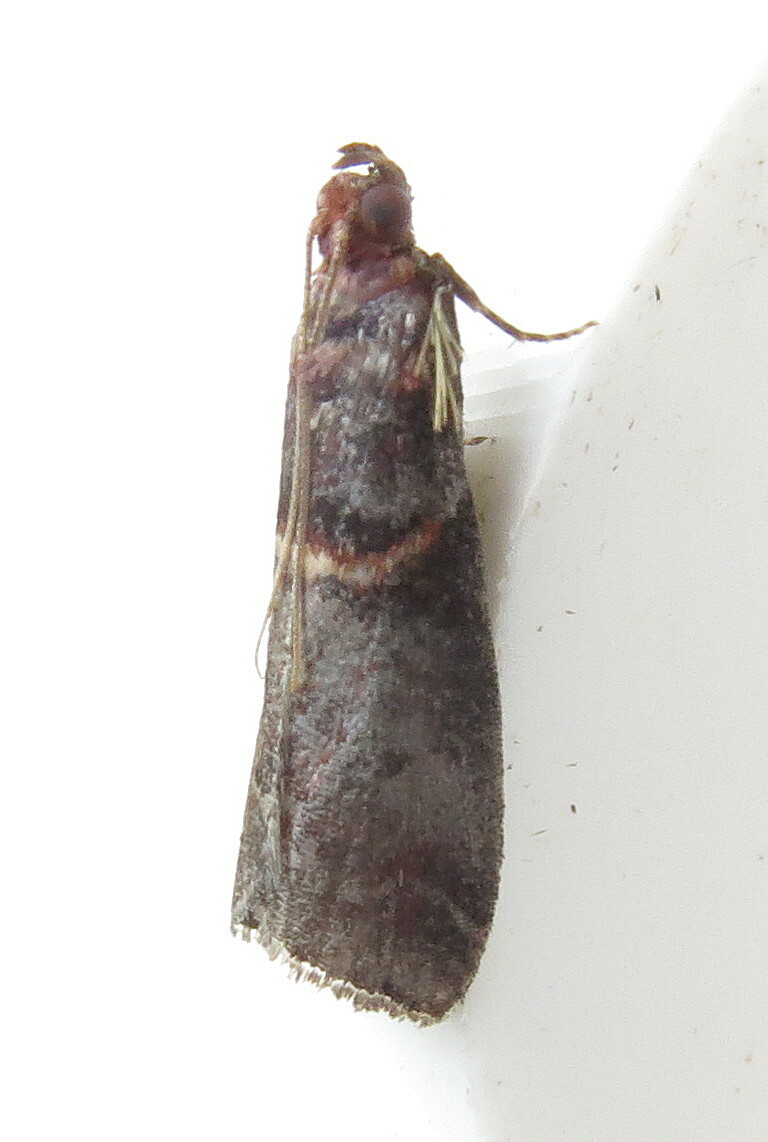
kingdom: Animalia
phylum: Arthropoda
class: Insecta
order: Lepidoptera
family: Pyralidae
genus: Acrobasis
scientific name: Acrobasis advenella
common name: Grey knot-horn
